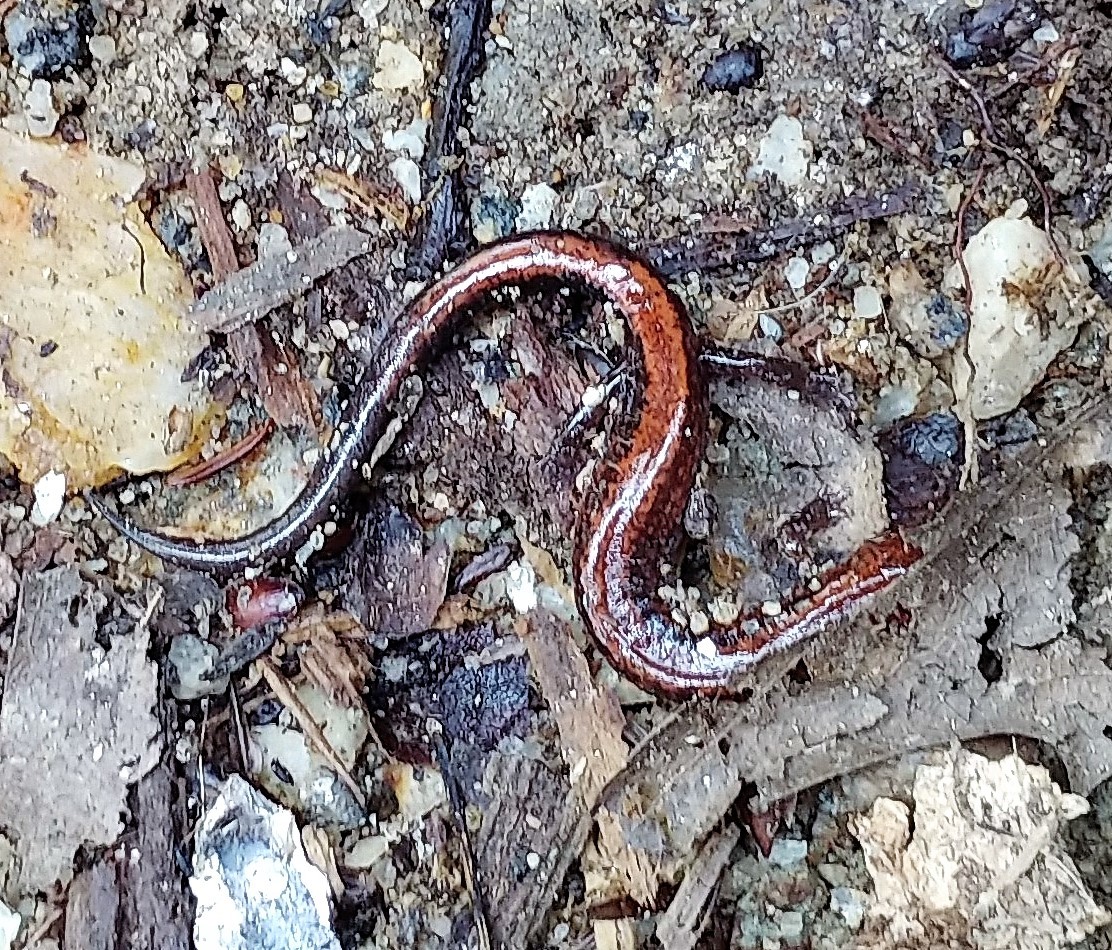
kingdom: Animalia
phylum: Chordata
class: Amphibia
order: Caudata
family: Plethodontidae
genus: Plethodon
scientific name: Plethodon cinereus
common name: Redback salamander
